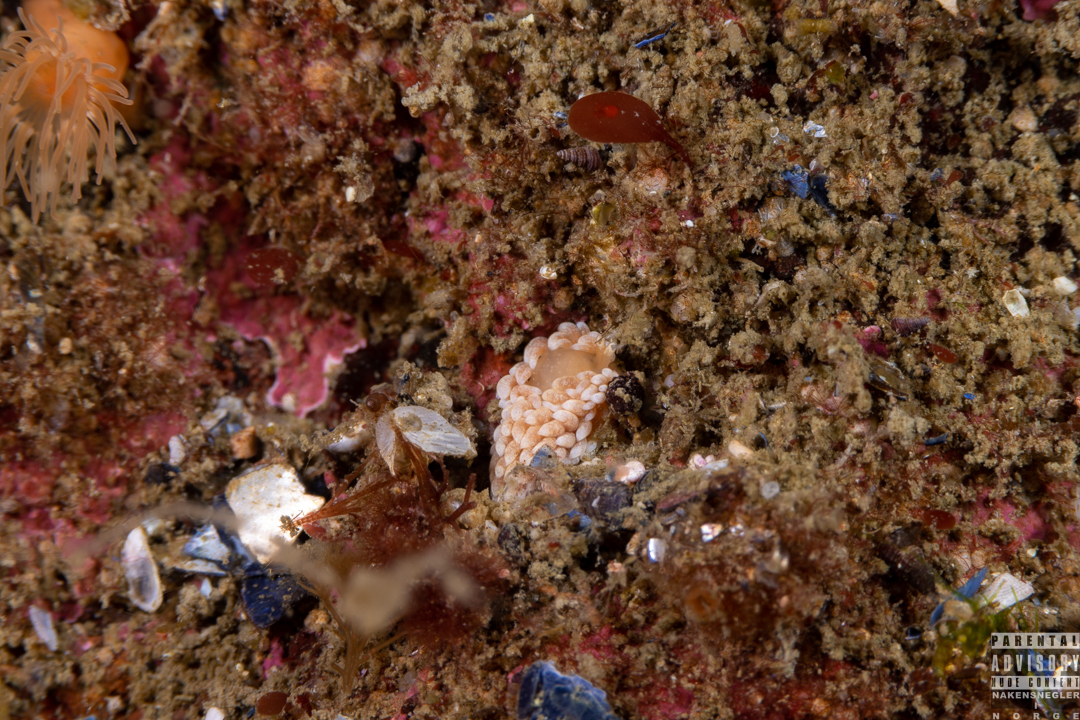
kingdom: Animalia
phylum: Mollusca
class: Gastropoda
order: Nudibranchia
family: Aeolidiidae
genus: Aeolidiella
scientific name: Aeolidiella glauca
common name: Orange-brown aeolid
